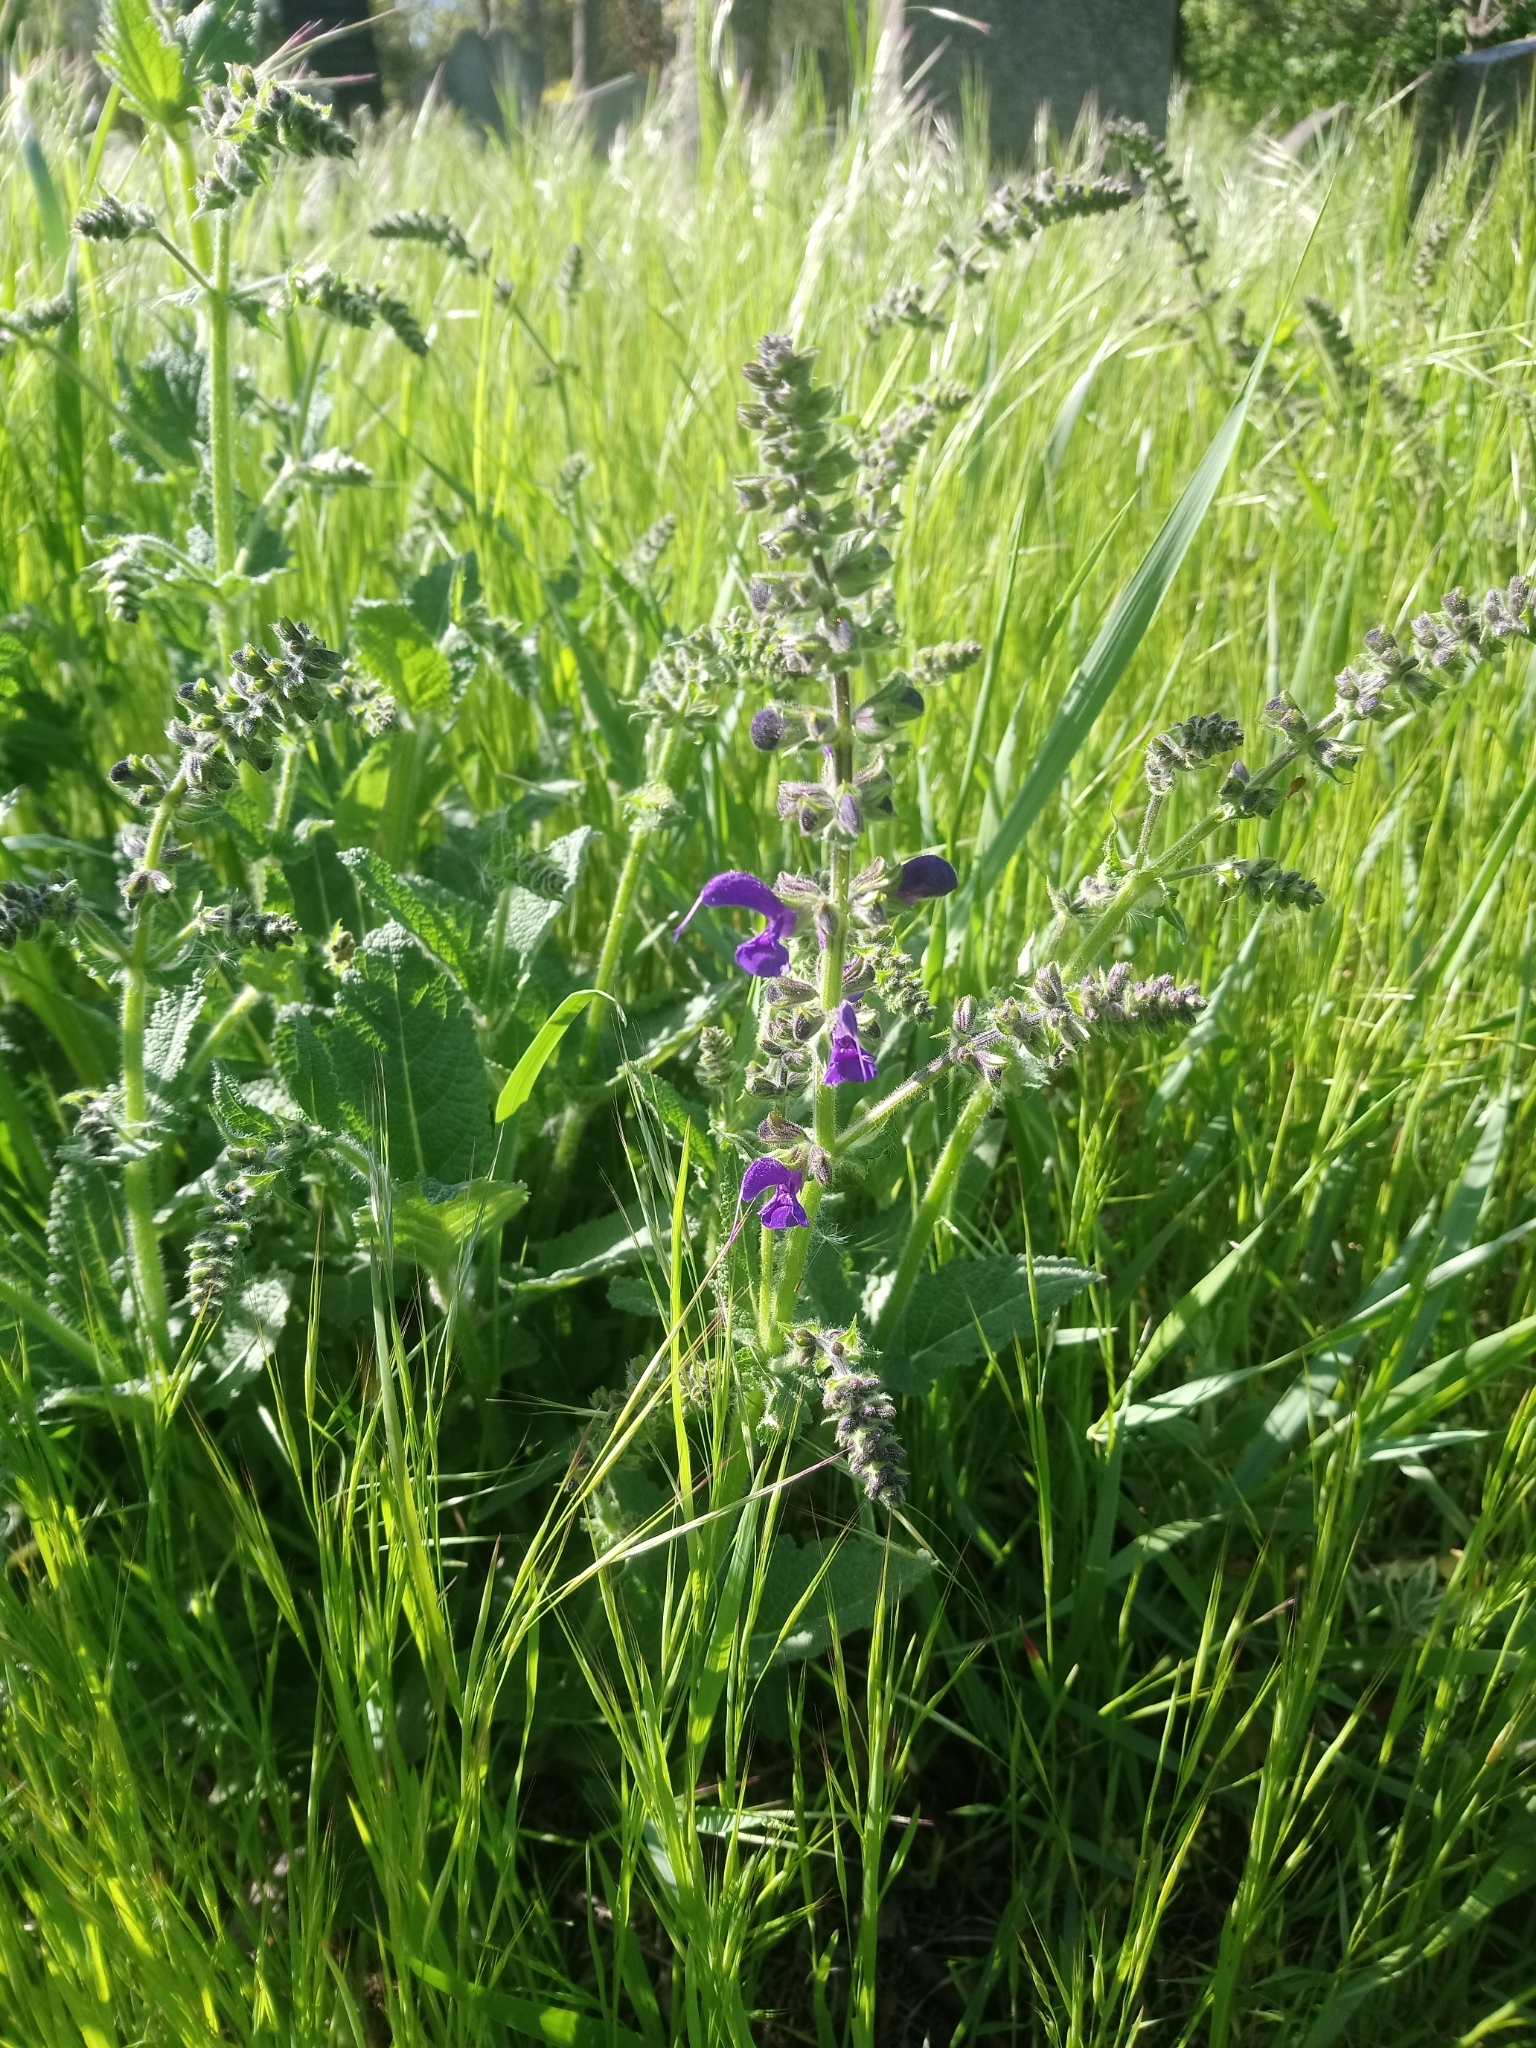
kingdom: Plantae
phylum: Tracheophyta
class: Magnoliopsida
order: Lamiales
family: Lamiaceae
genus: Salvia
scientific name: Salvia pratensis
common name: Meadow sage
